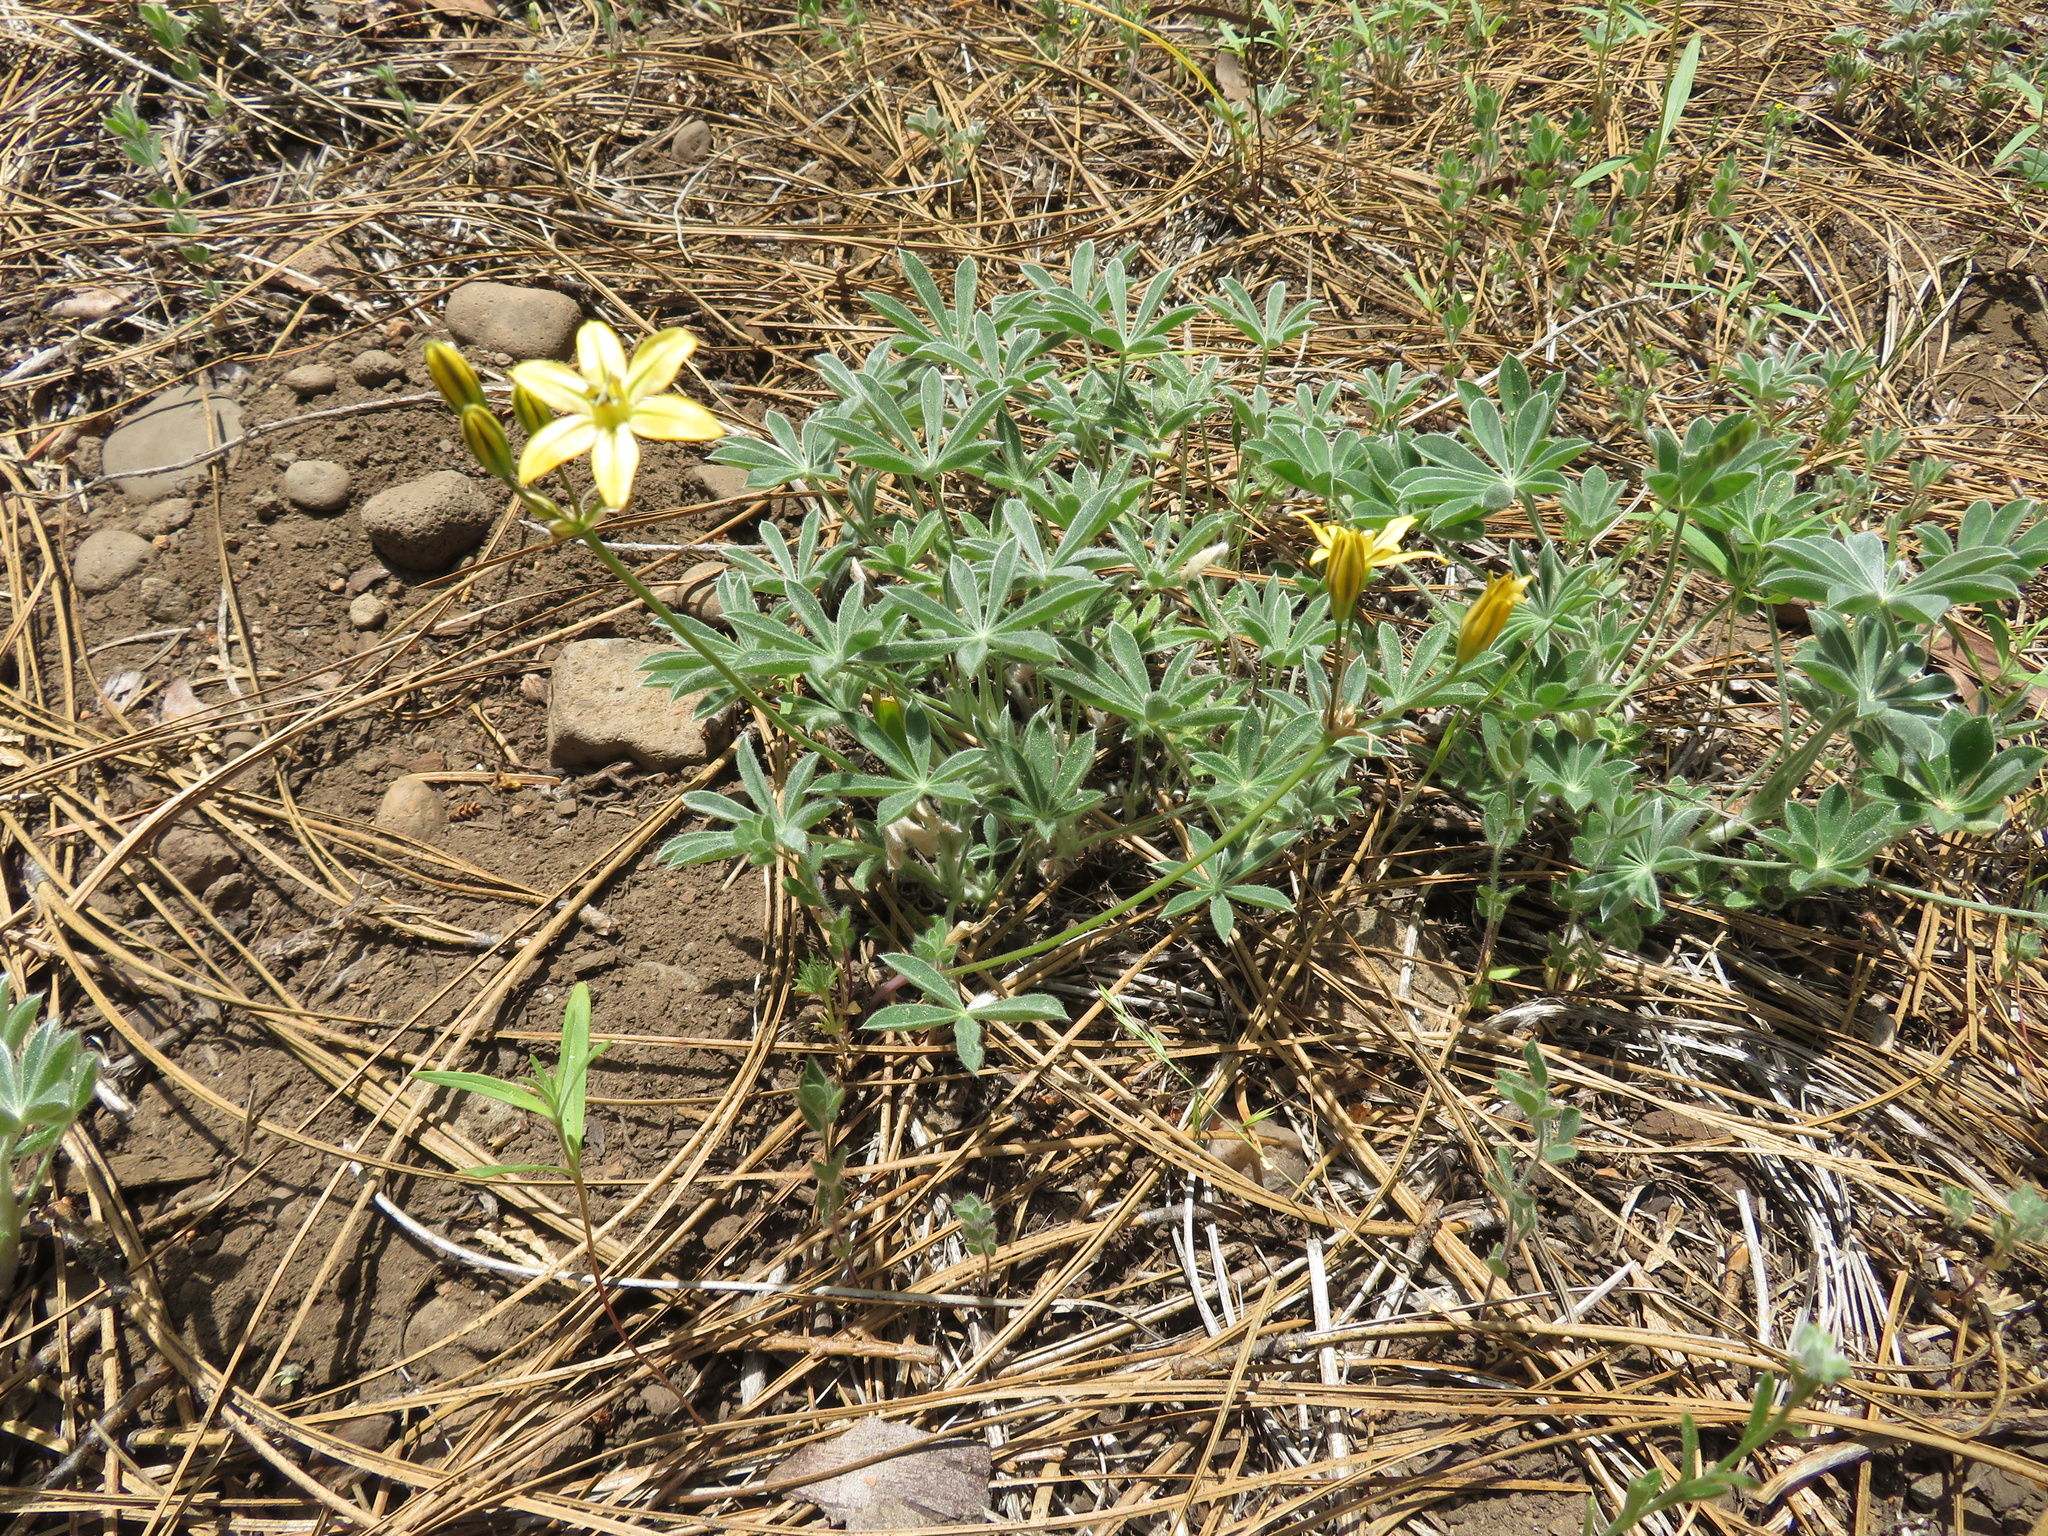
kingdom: Plantae
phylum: Tracheophyta
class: Liliopsida
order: Asparagales
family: Asparagaceae
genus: Triteleia
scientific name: Triteleia ixioides
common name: Yellow-brodiaea
